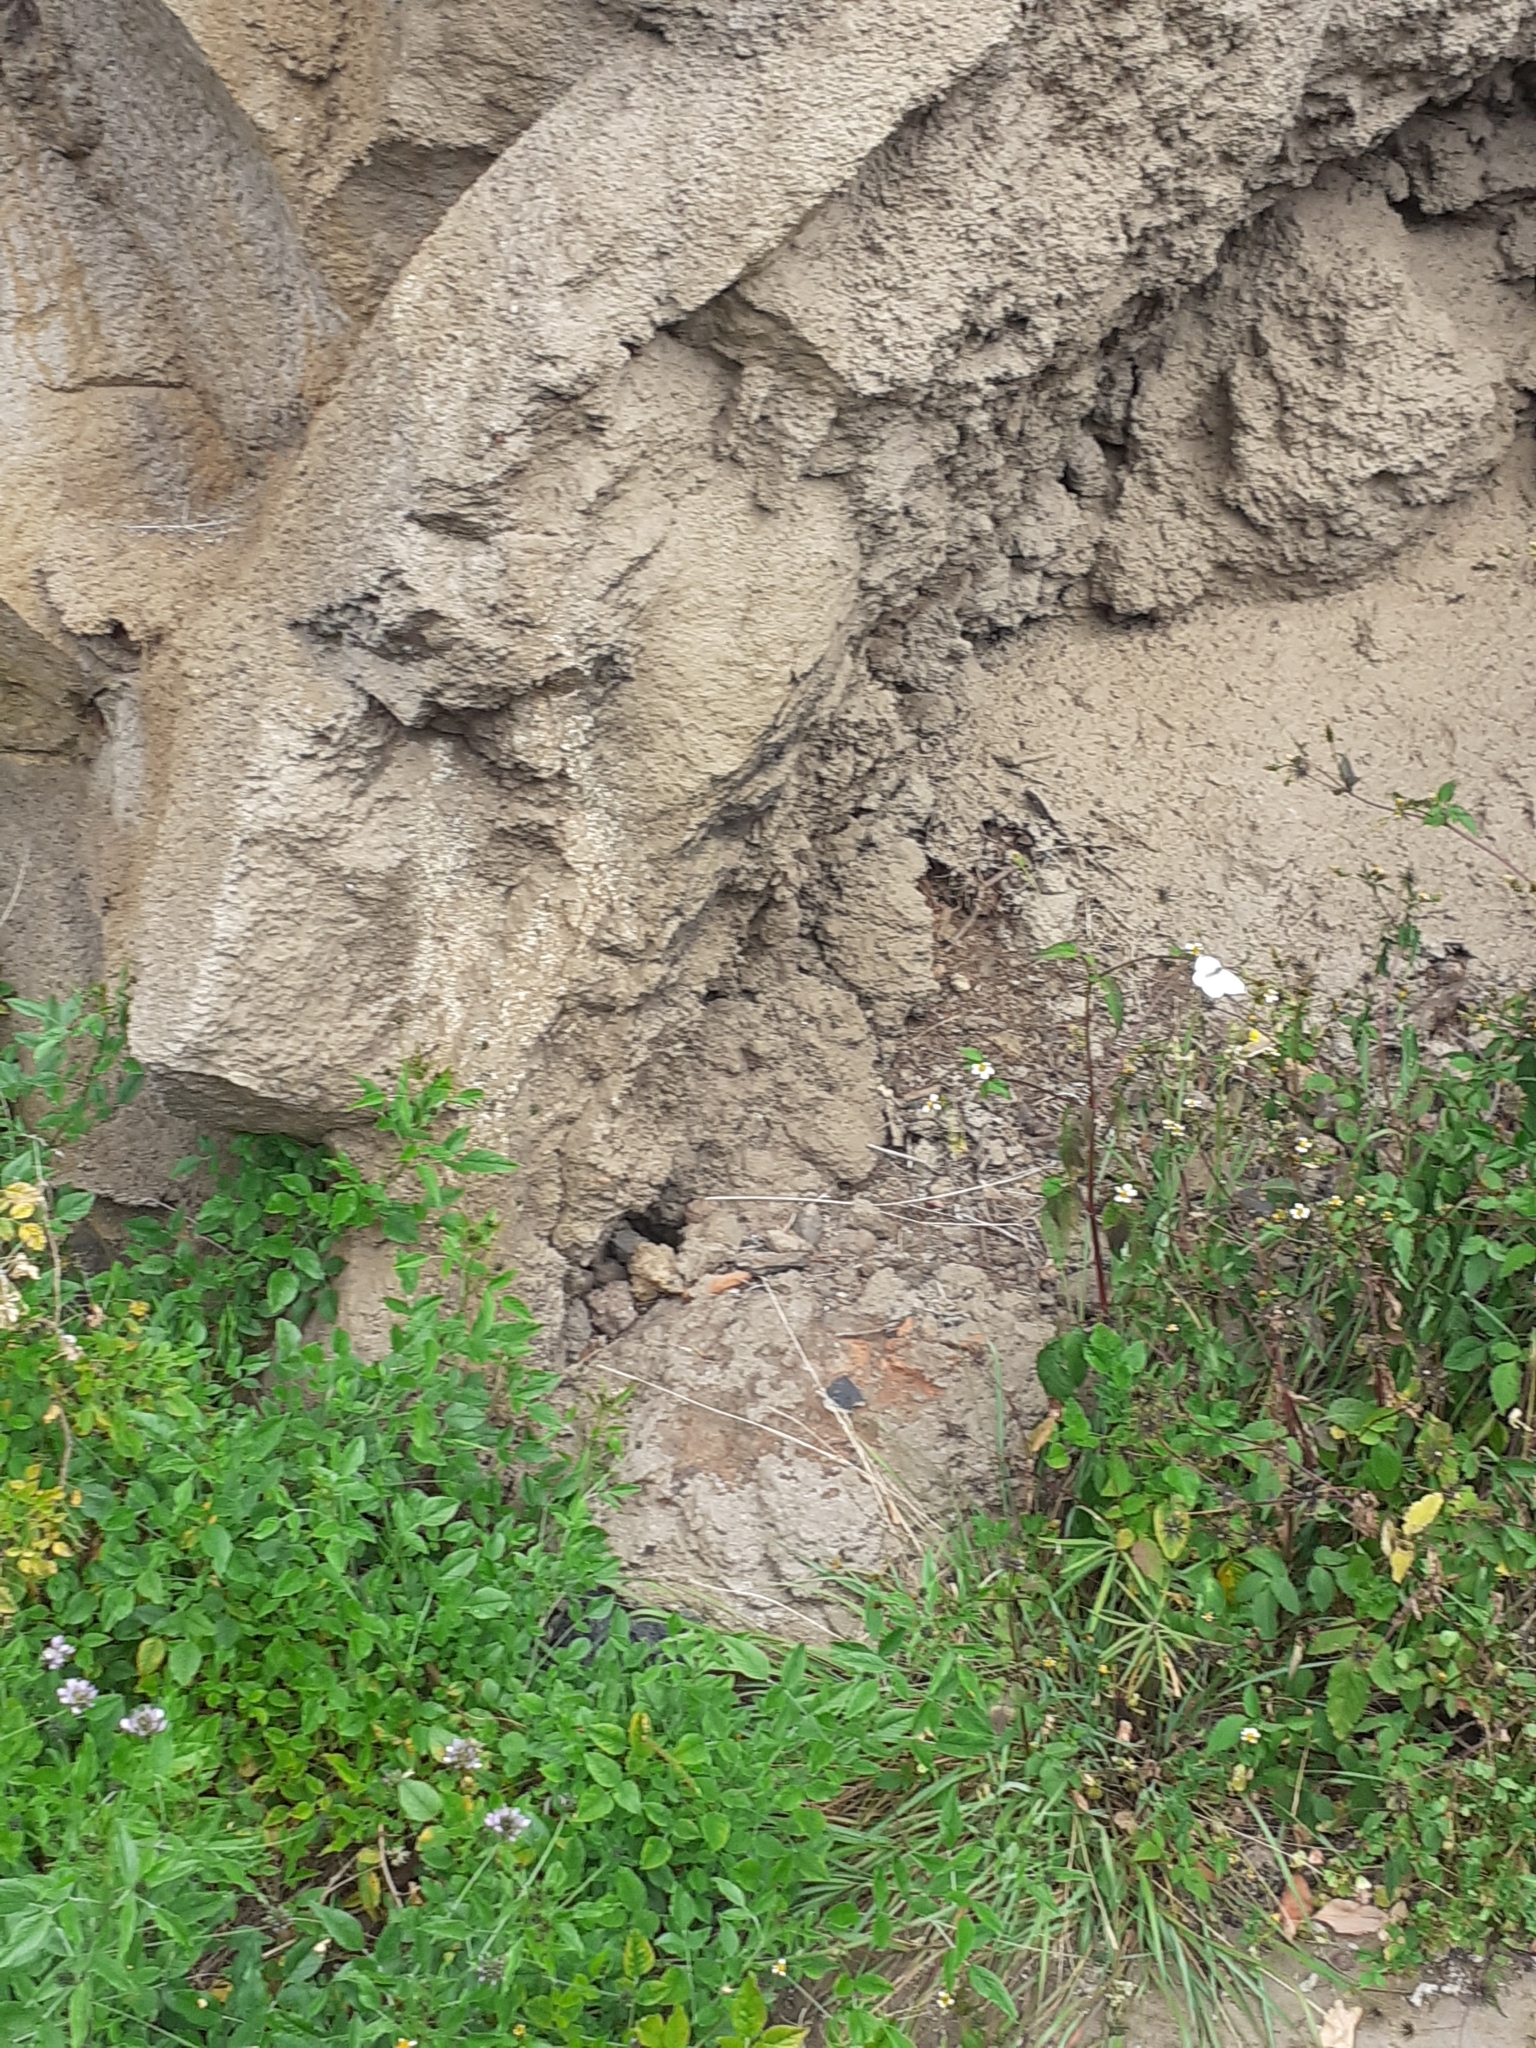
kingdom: Animalia
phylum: Arthropoda
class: Insecta
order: Lepidoptera
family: Pieridae
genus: Pieris
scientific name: Pieris rapae
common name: Small white
